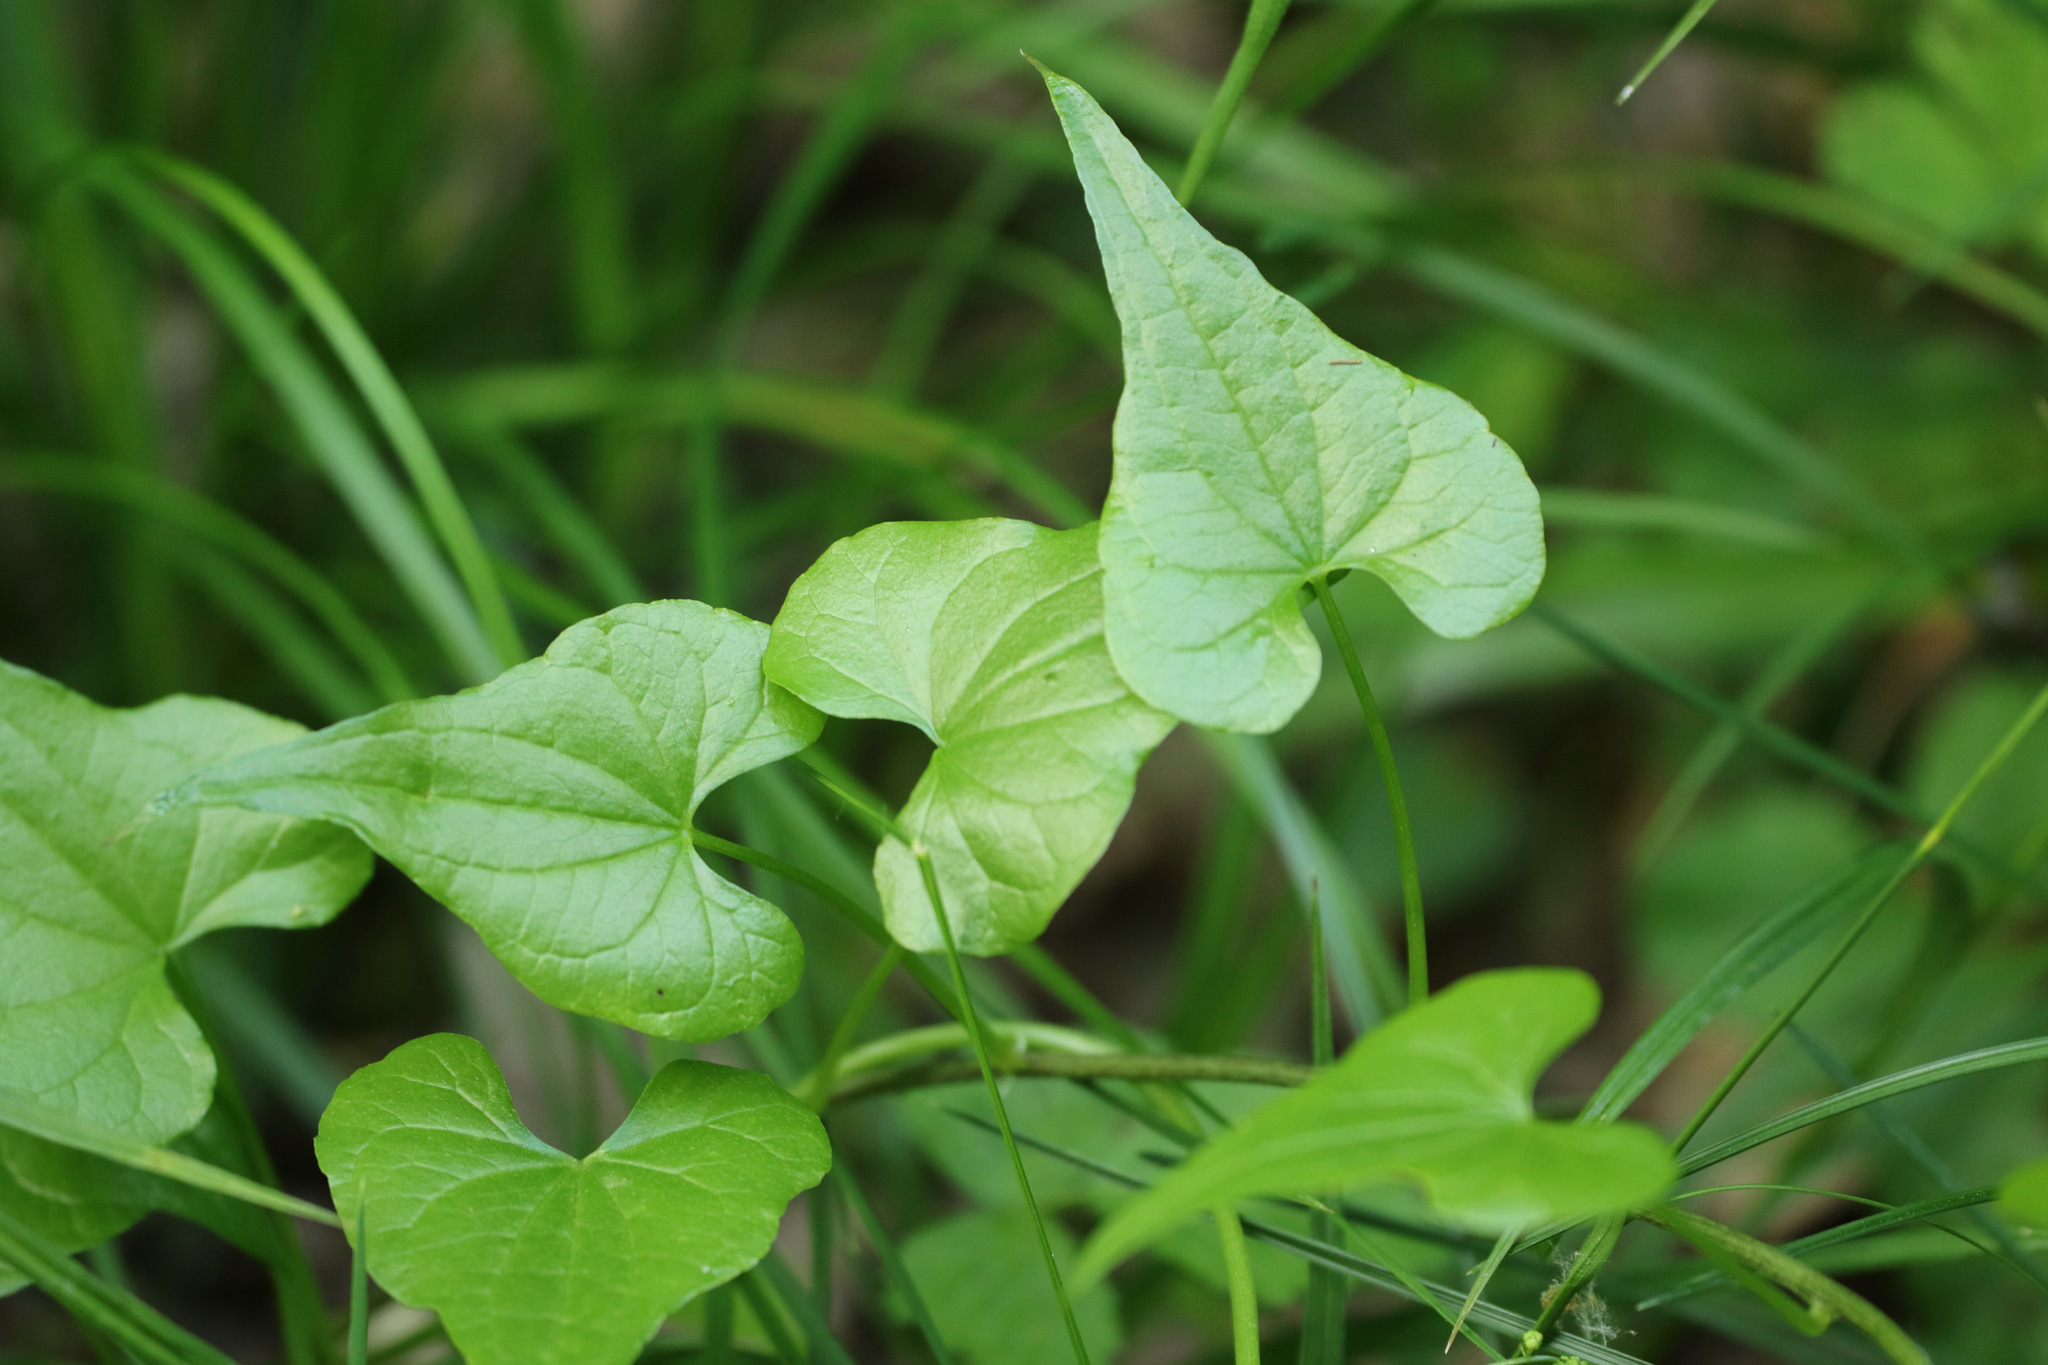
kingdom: Plantae
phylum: Tracheophyta
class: Liliopsida
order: Dioscoreales
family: Dioscoreaceae
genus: Dioscorea
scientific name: Dioscorea communis
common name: Black-bindweed
